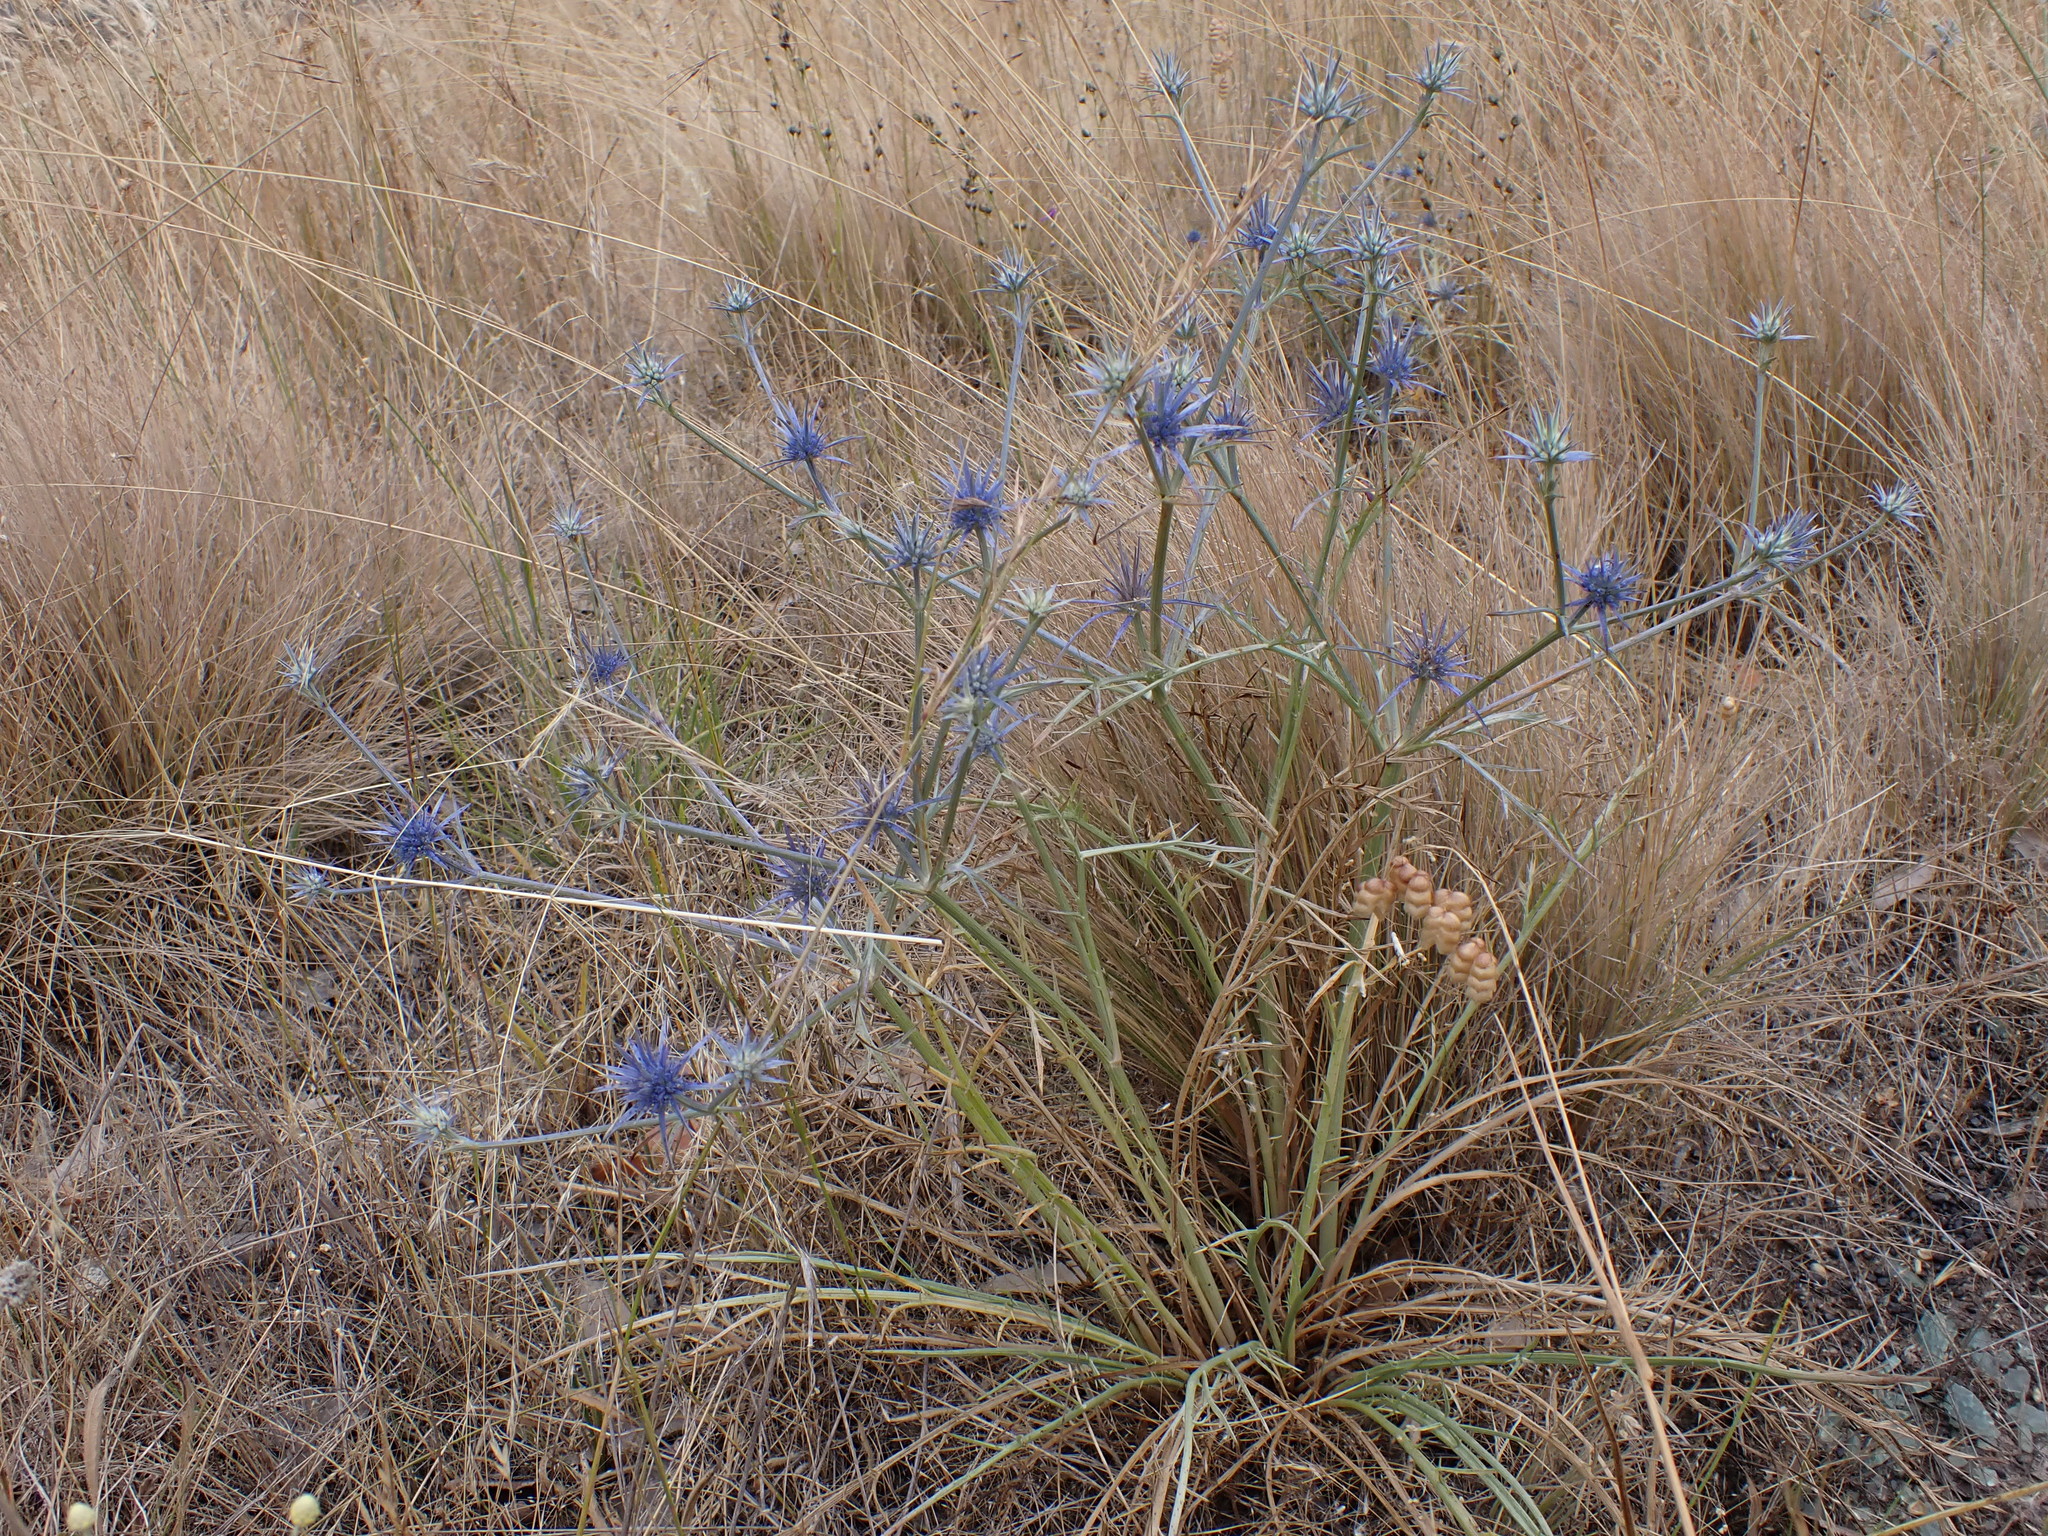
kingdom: Plantae
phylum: Tracheophyta
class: Magnoliopsida
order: Apiales
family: Apiaceae
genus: Eryngium
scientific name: Eryngium ovinum
